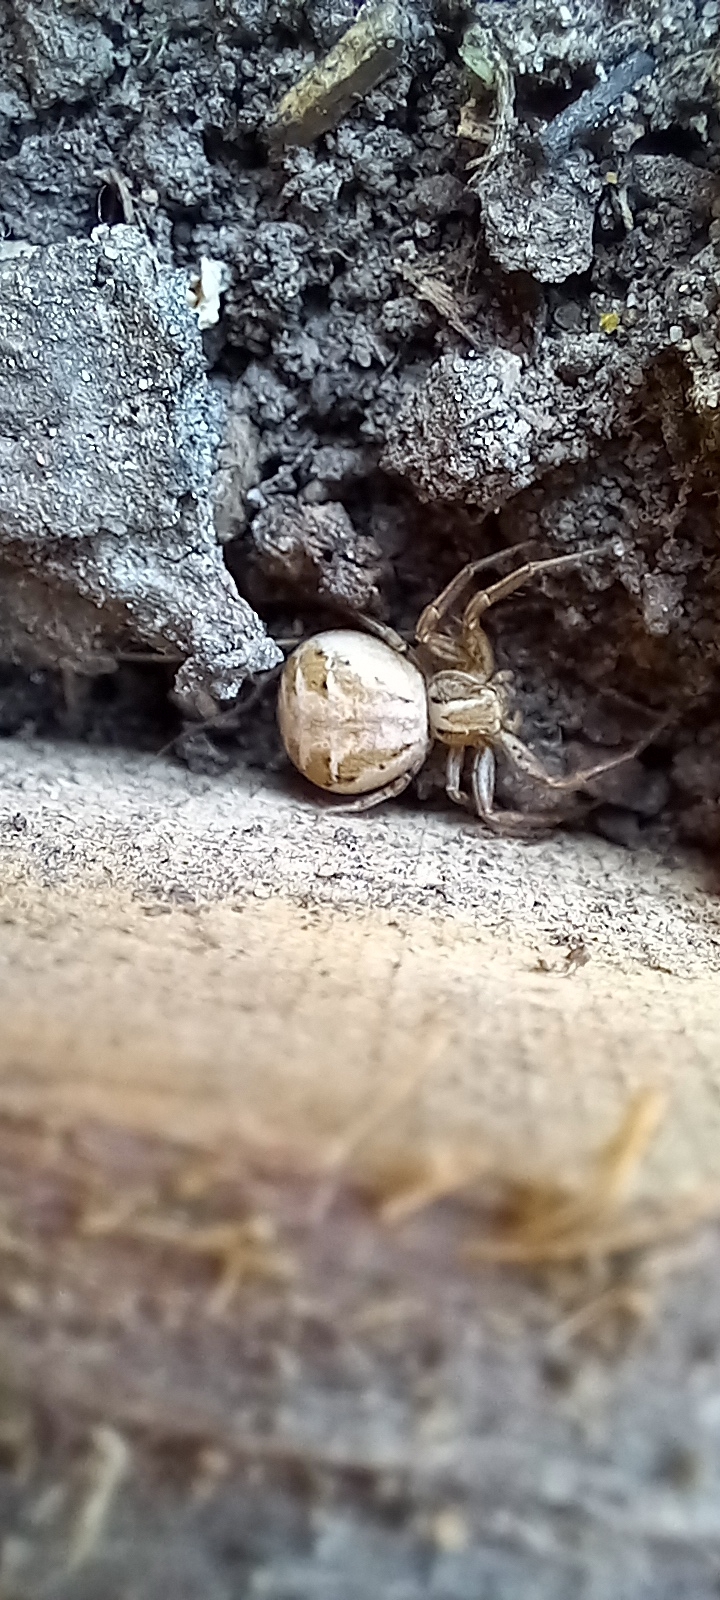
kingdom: Animalia
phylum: Arthropoda
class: Arachnida
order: Araneae
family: Thomisidae
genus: Xysticus
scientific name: Xysticus
